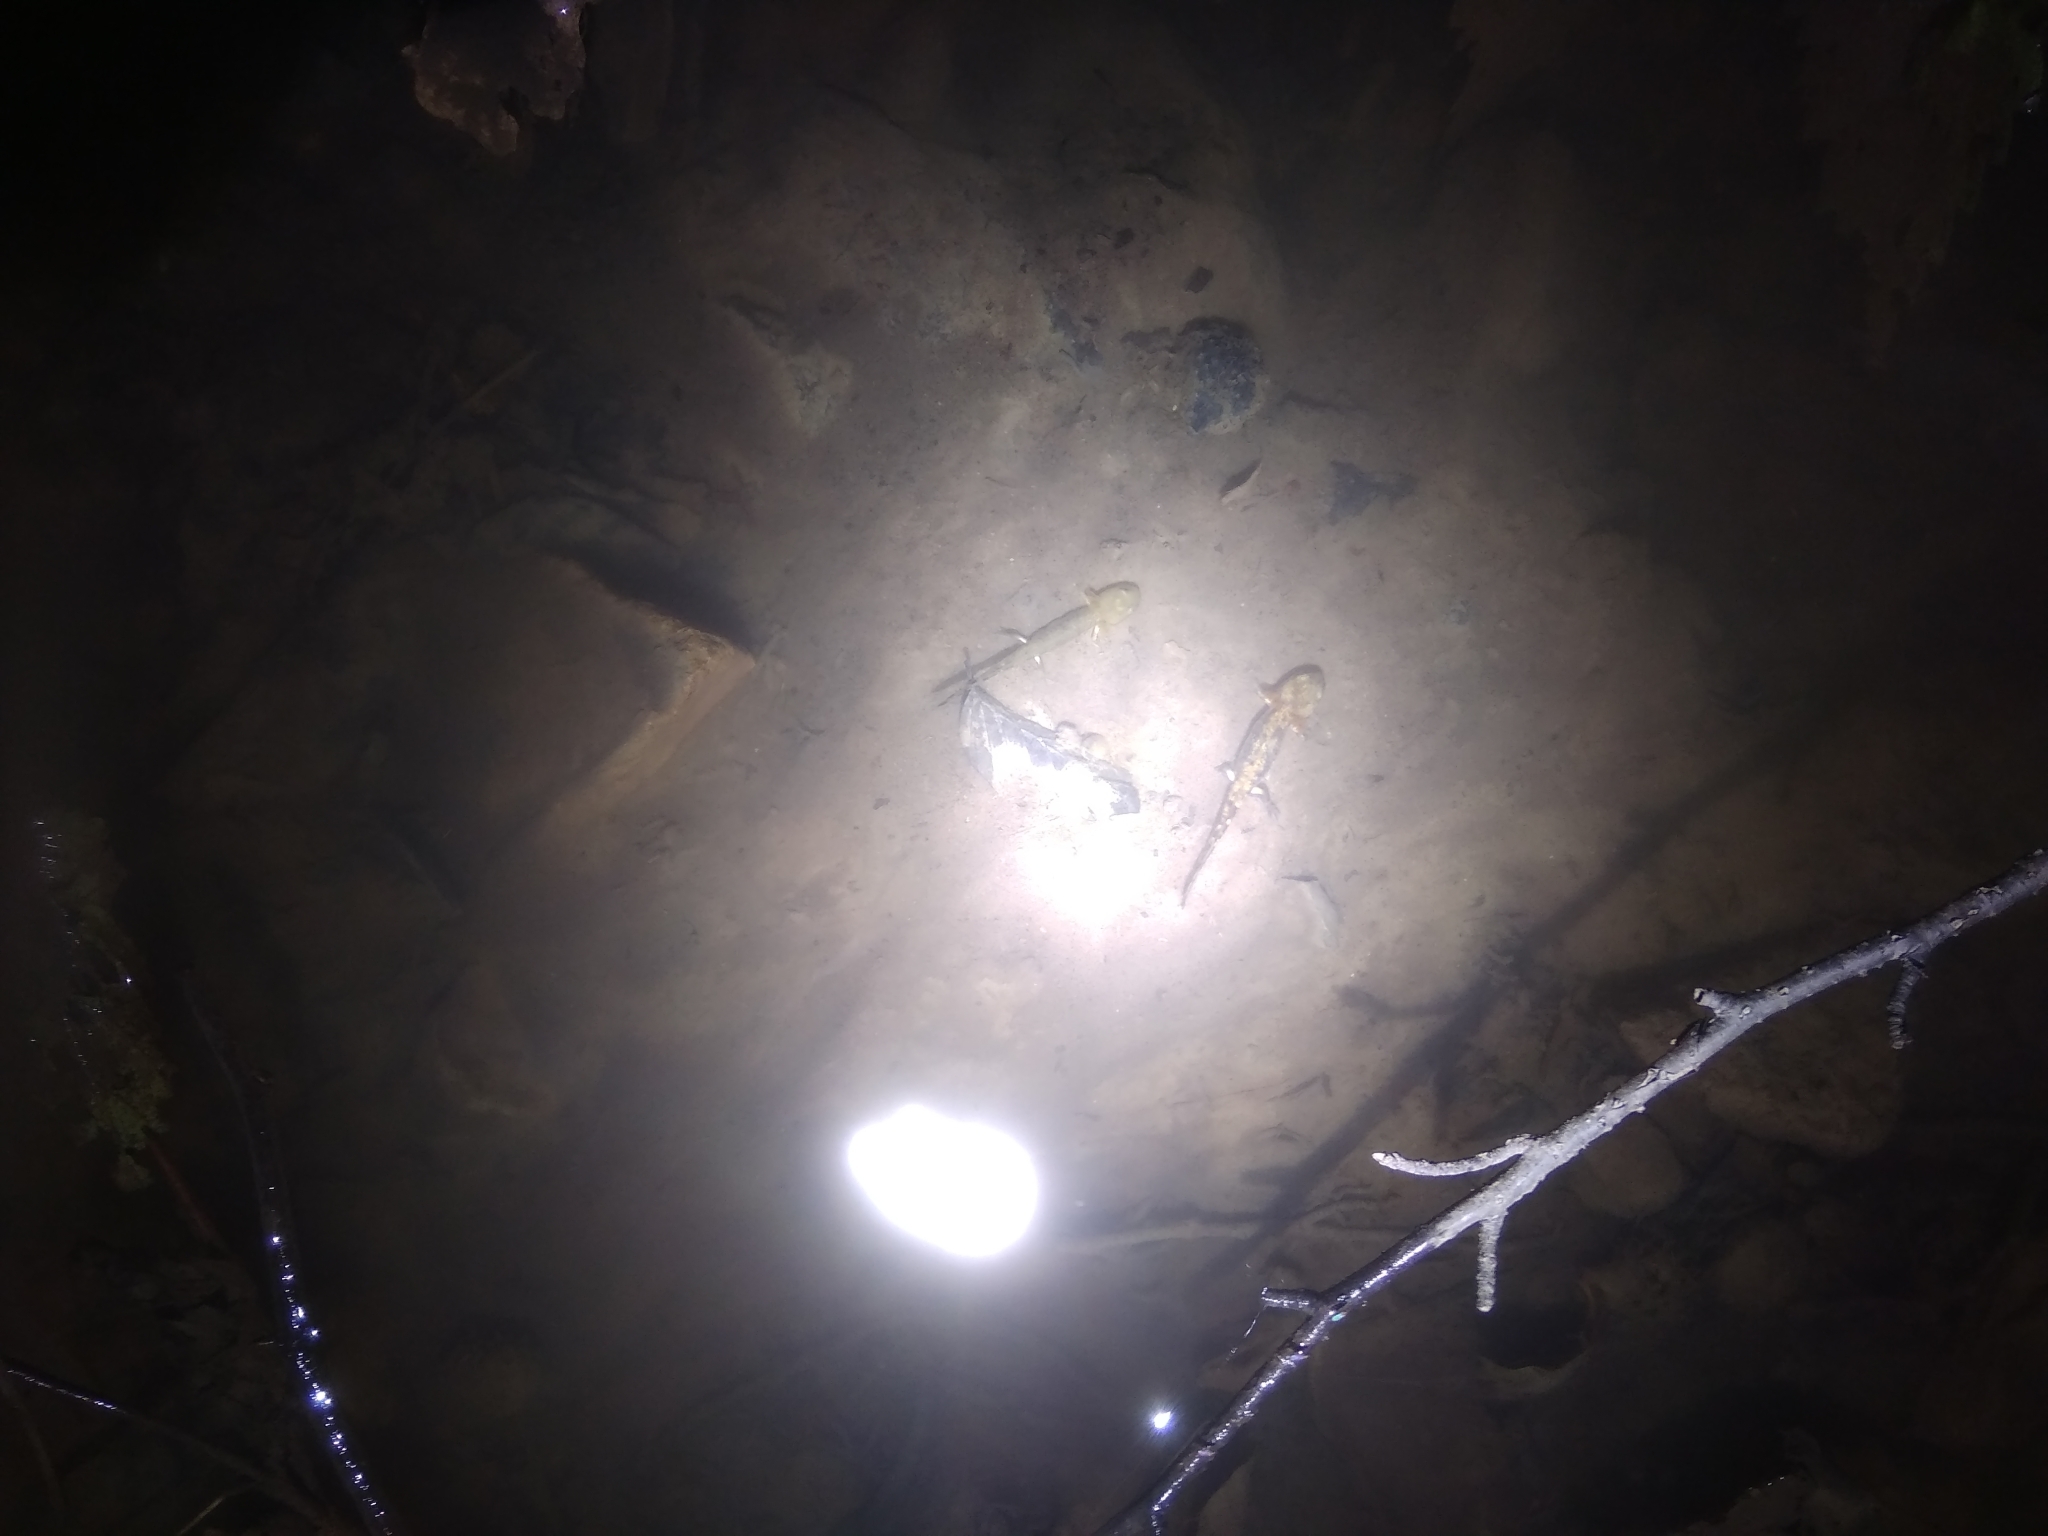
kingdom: Animalia
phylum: Chordata
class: Amphibia
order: Caudata
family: Salamandridae
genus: Salamandra
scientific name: Salamandra salamandra
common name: Fire salamander
